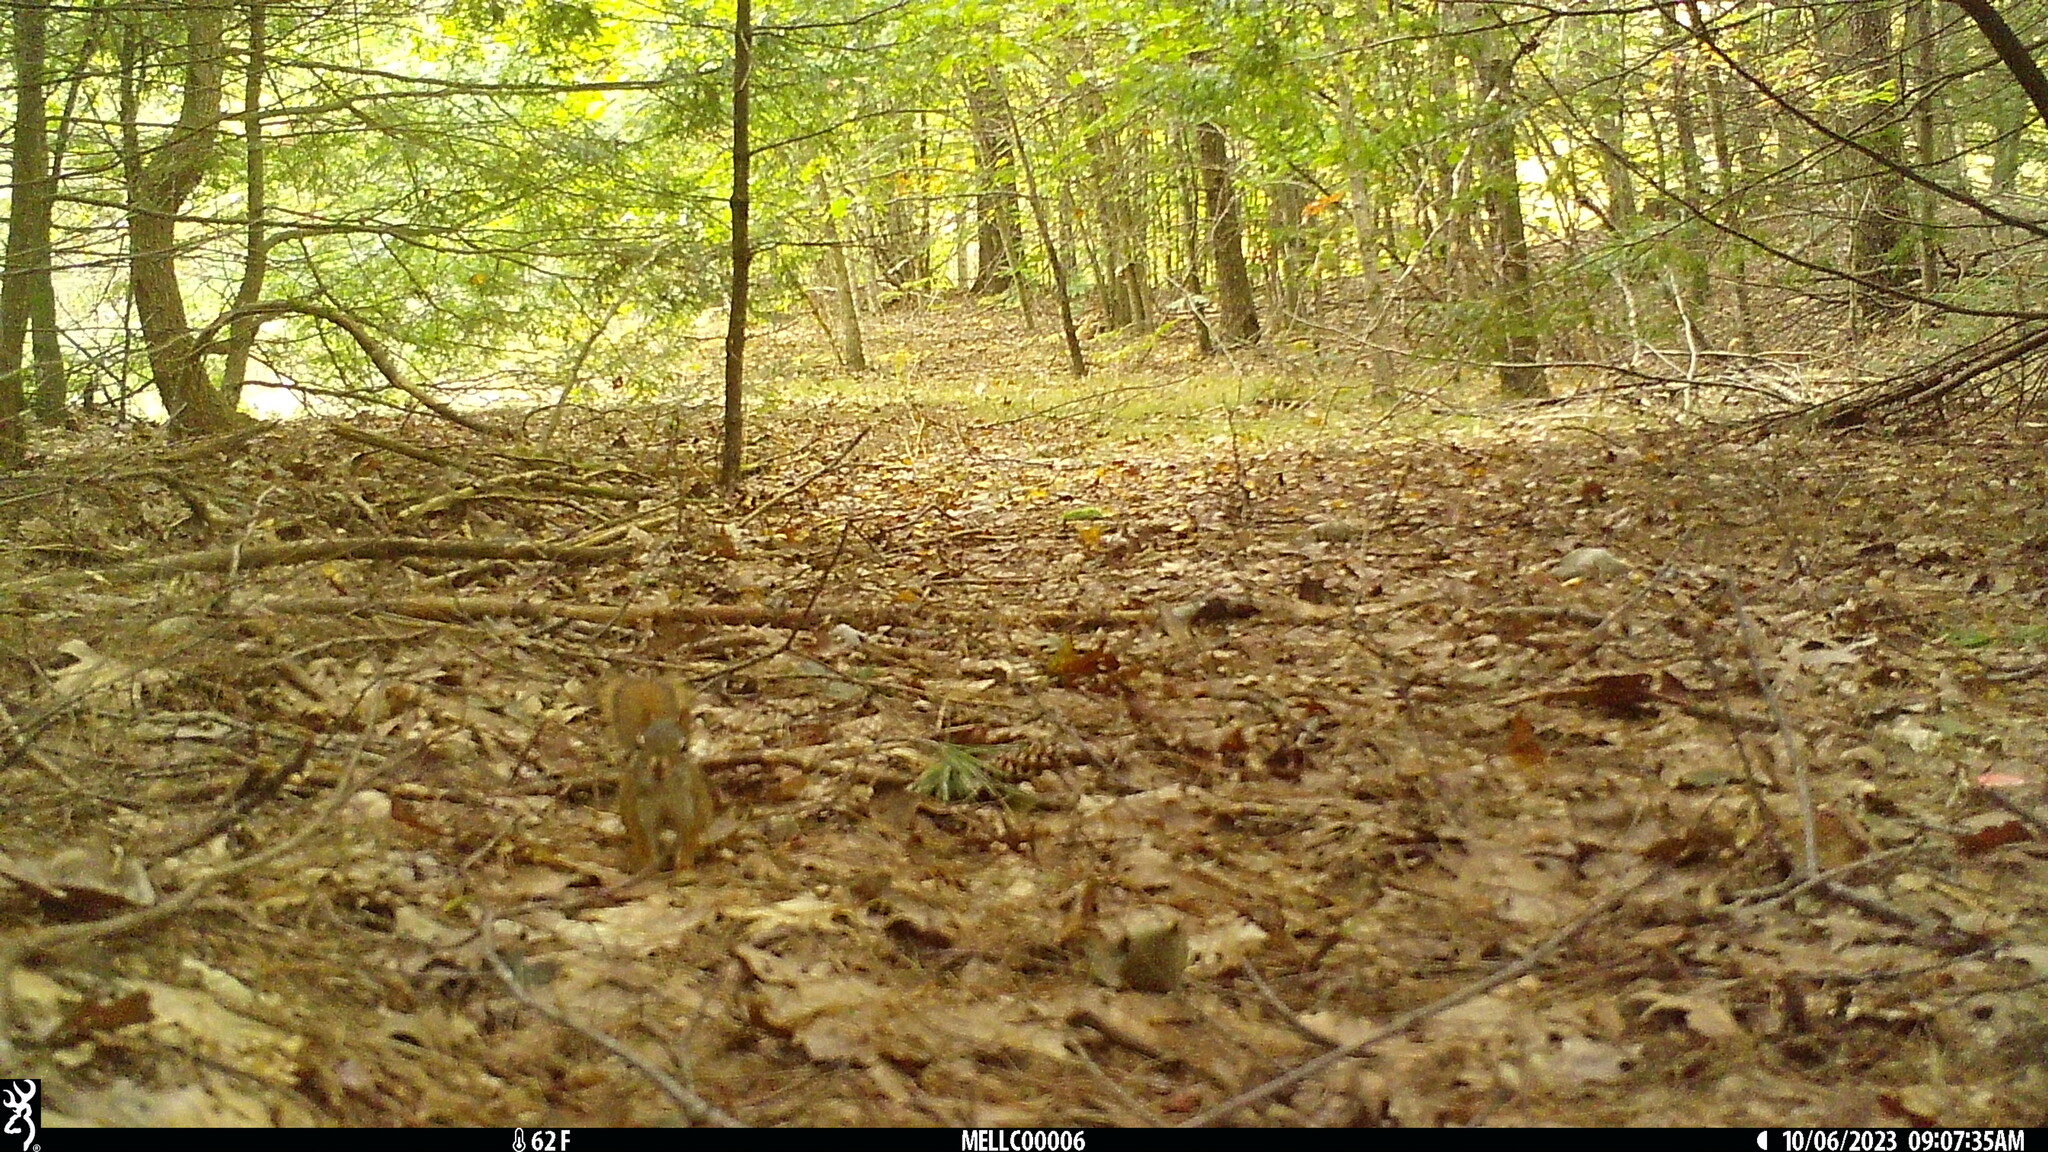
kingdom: Animalia
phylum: Chordata
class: Mammalia
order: Rodentia
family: Sciuridae
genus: Tamiasciurus
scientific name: Tamiasciurus hudsonicus
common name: Red squirrel
